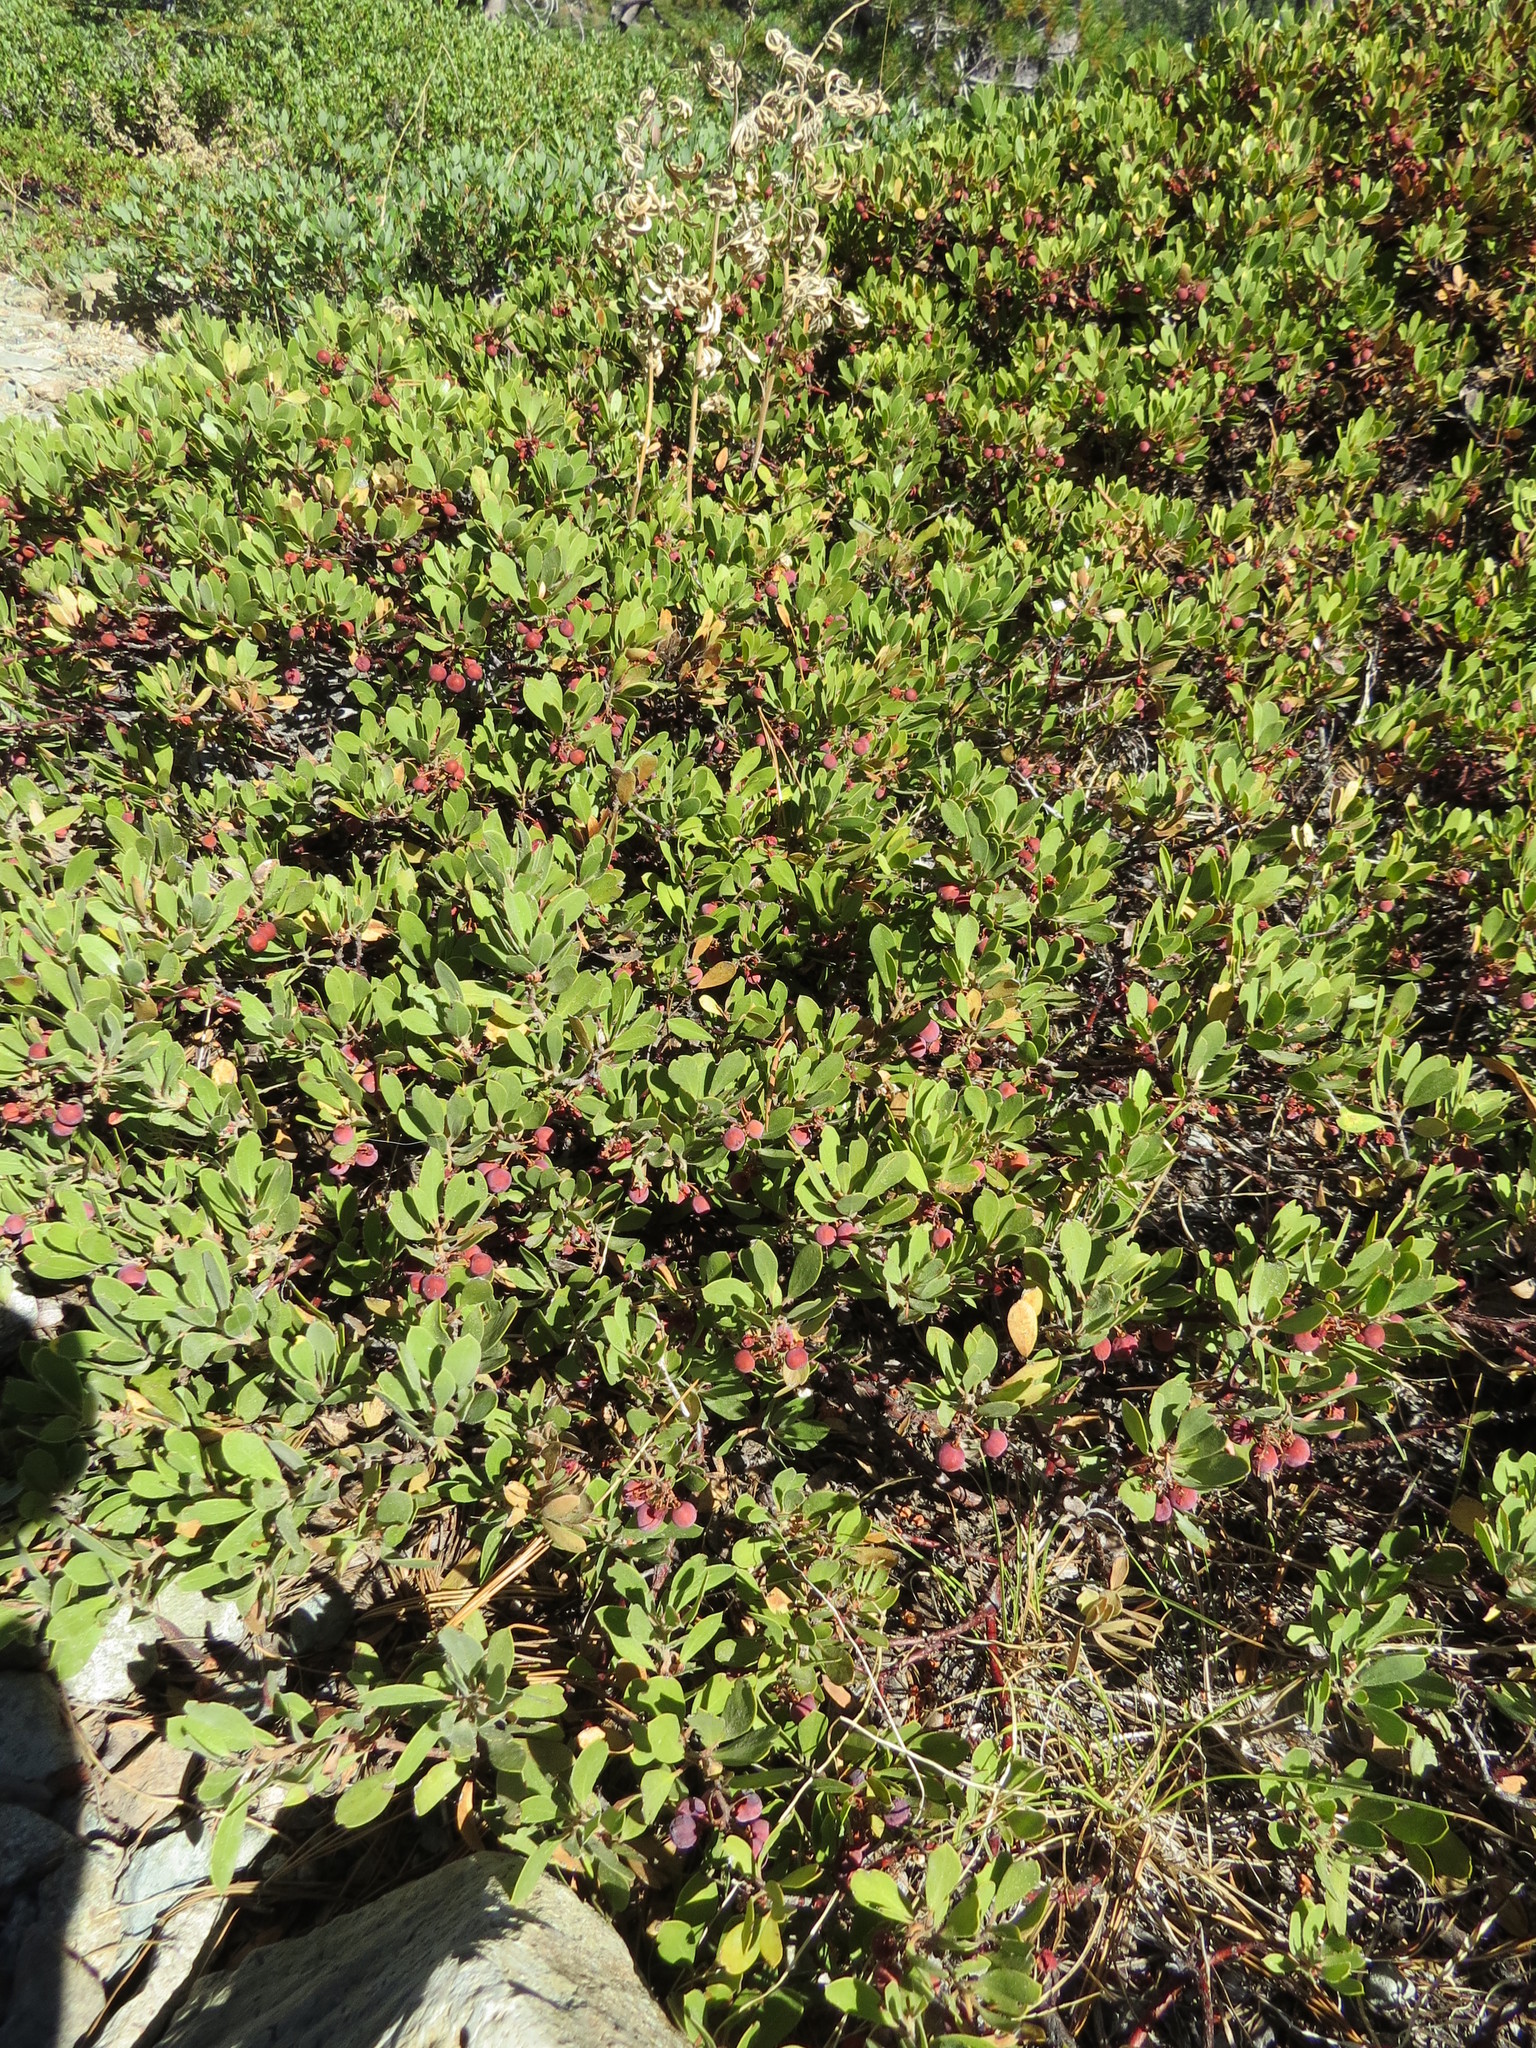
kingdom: Plantae
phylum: Tracheophyta
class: Magnoliopsida
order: Ericales
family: Ericaceae
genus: Arctostaphylos
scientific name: Arctostaphylos nevadensis
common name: Pinemat manzanita
